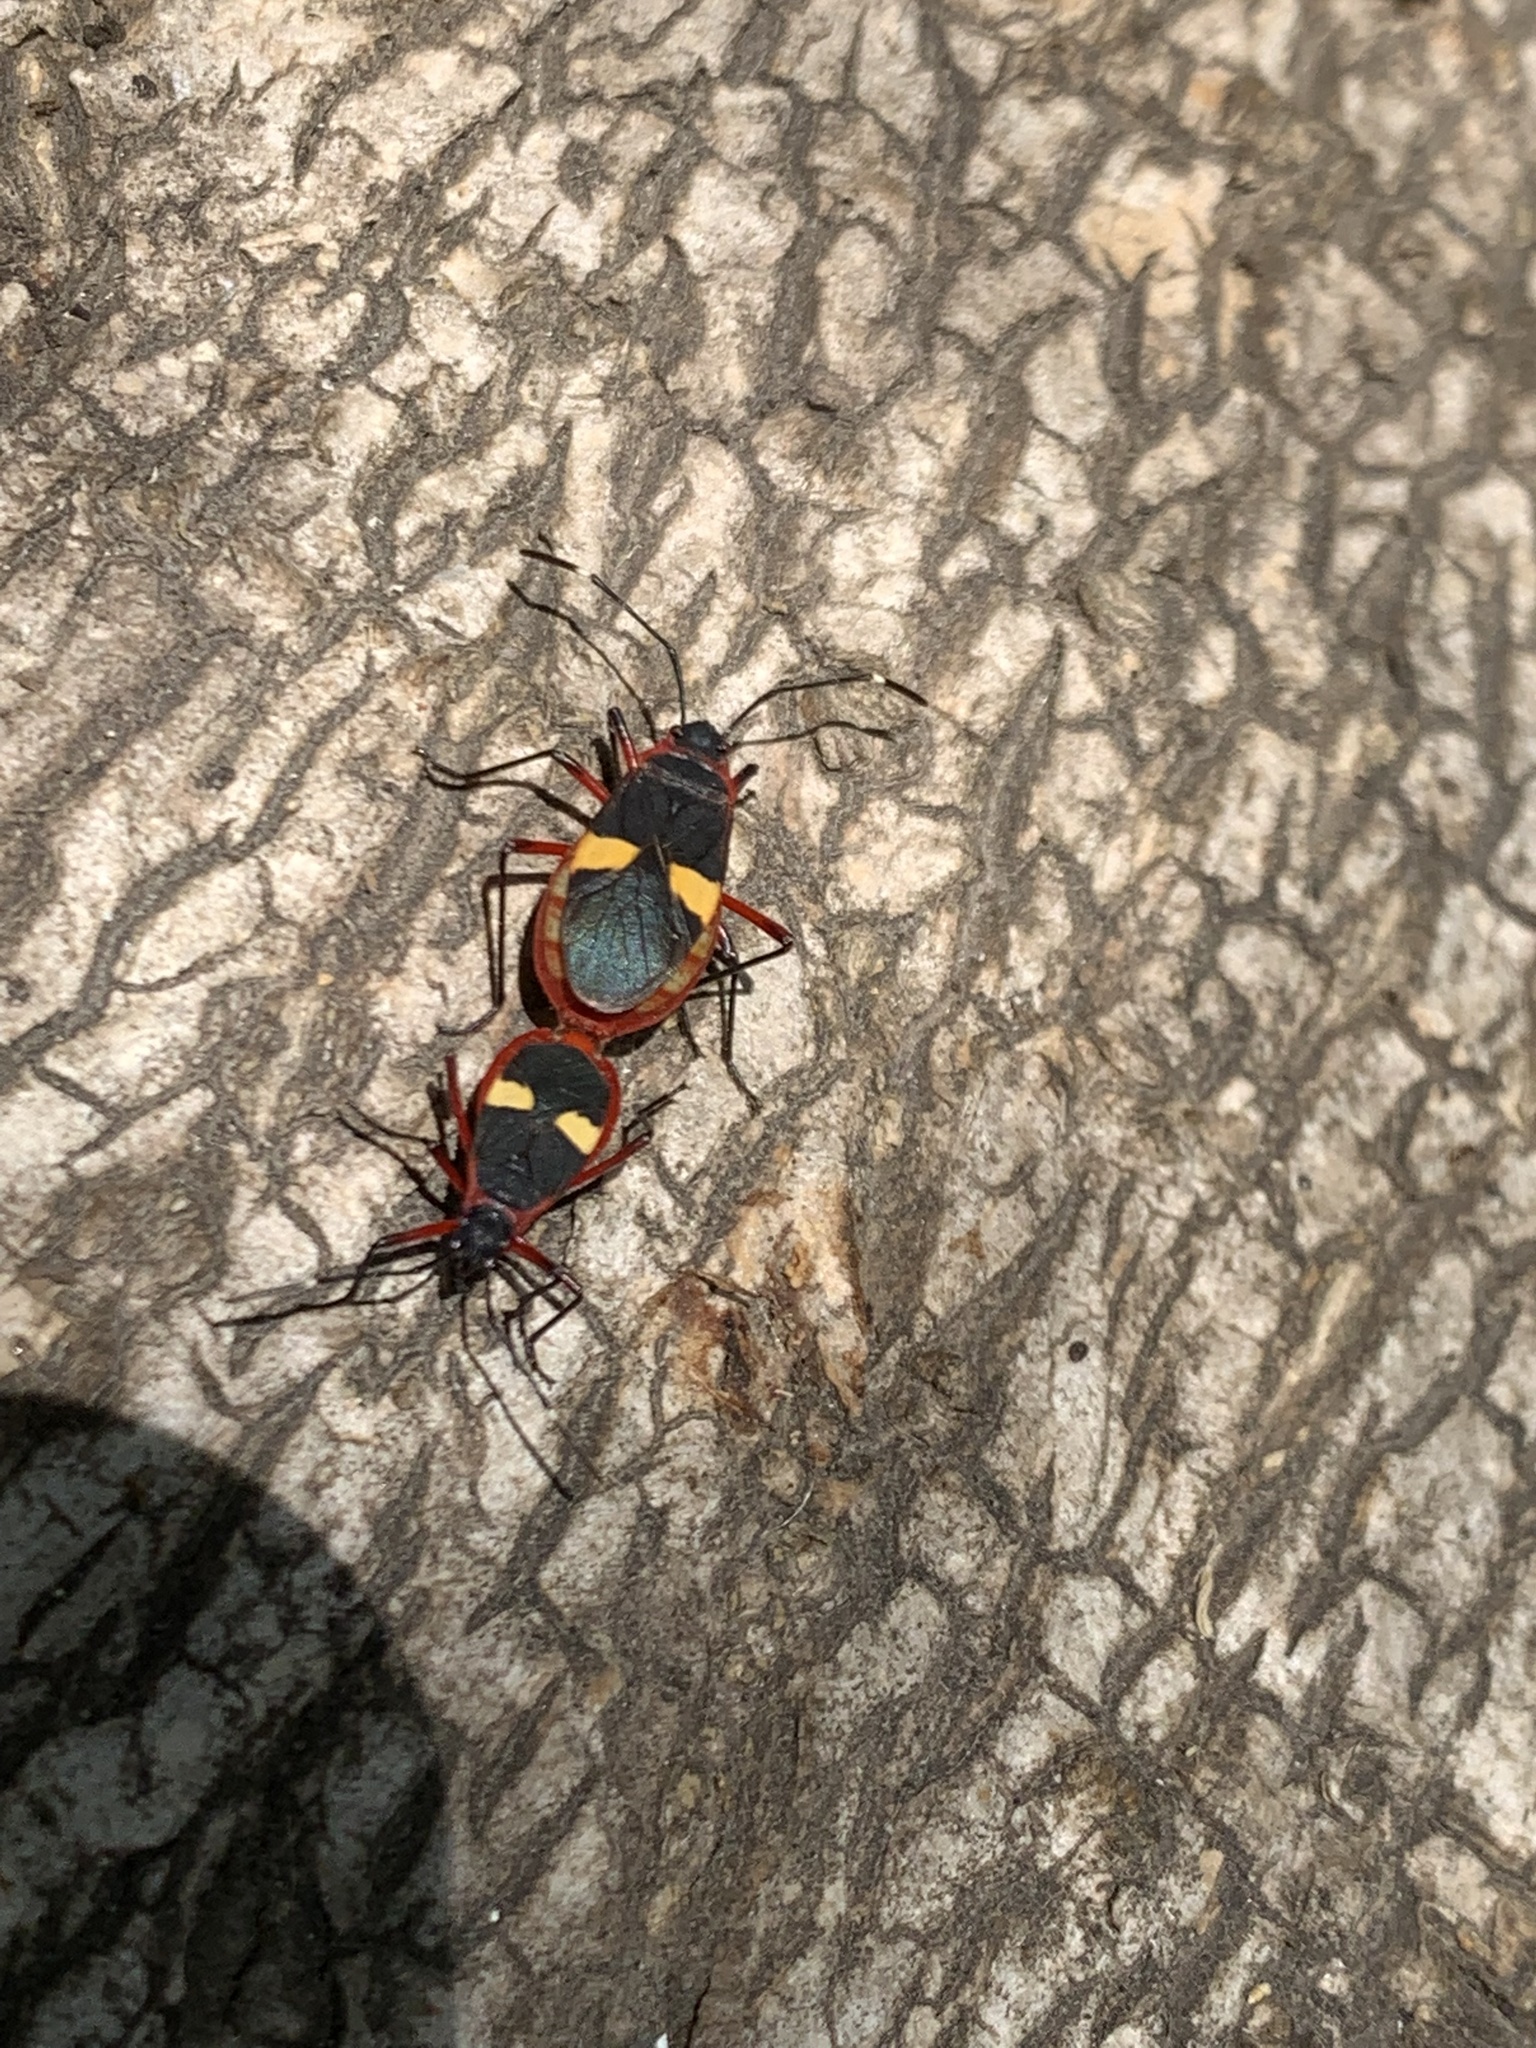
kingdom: Animalia
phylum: Arthropoda
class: Insecta
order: Hemiptera
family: Pyrrhocoridae
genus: Dysdercus
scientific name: Dysdercus albofasciatus
